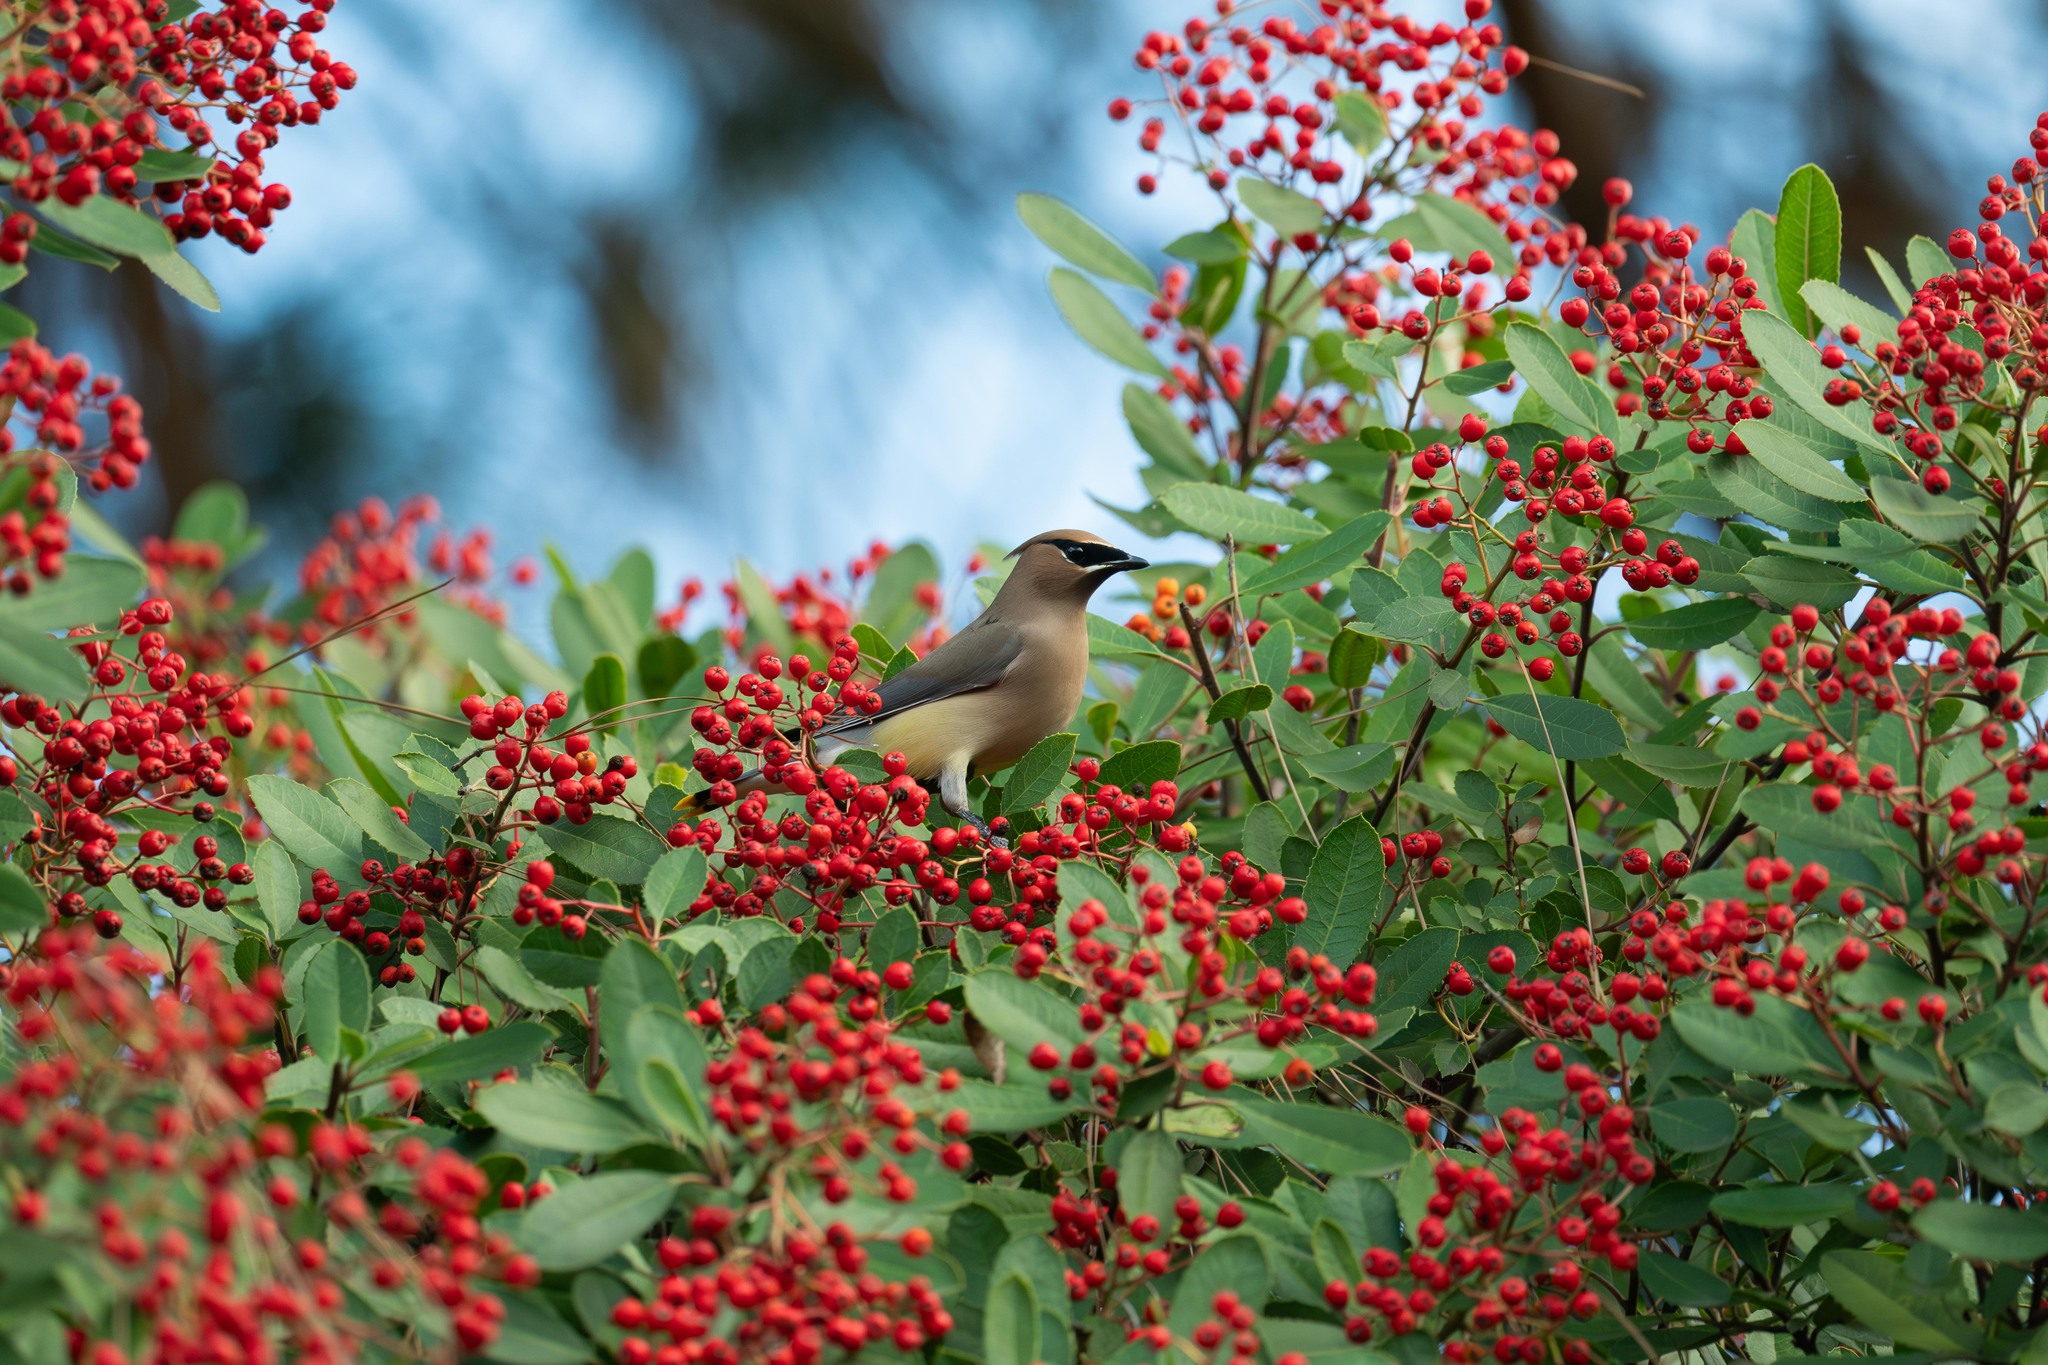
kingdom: Animalia
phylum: Chordata
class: Aves
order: Passeriformes
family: Bombycillidae
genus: Bombycilla
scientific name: Bombycilla cedrorum
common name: Cedar waxwing
